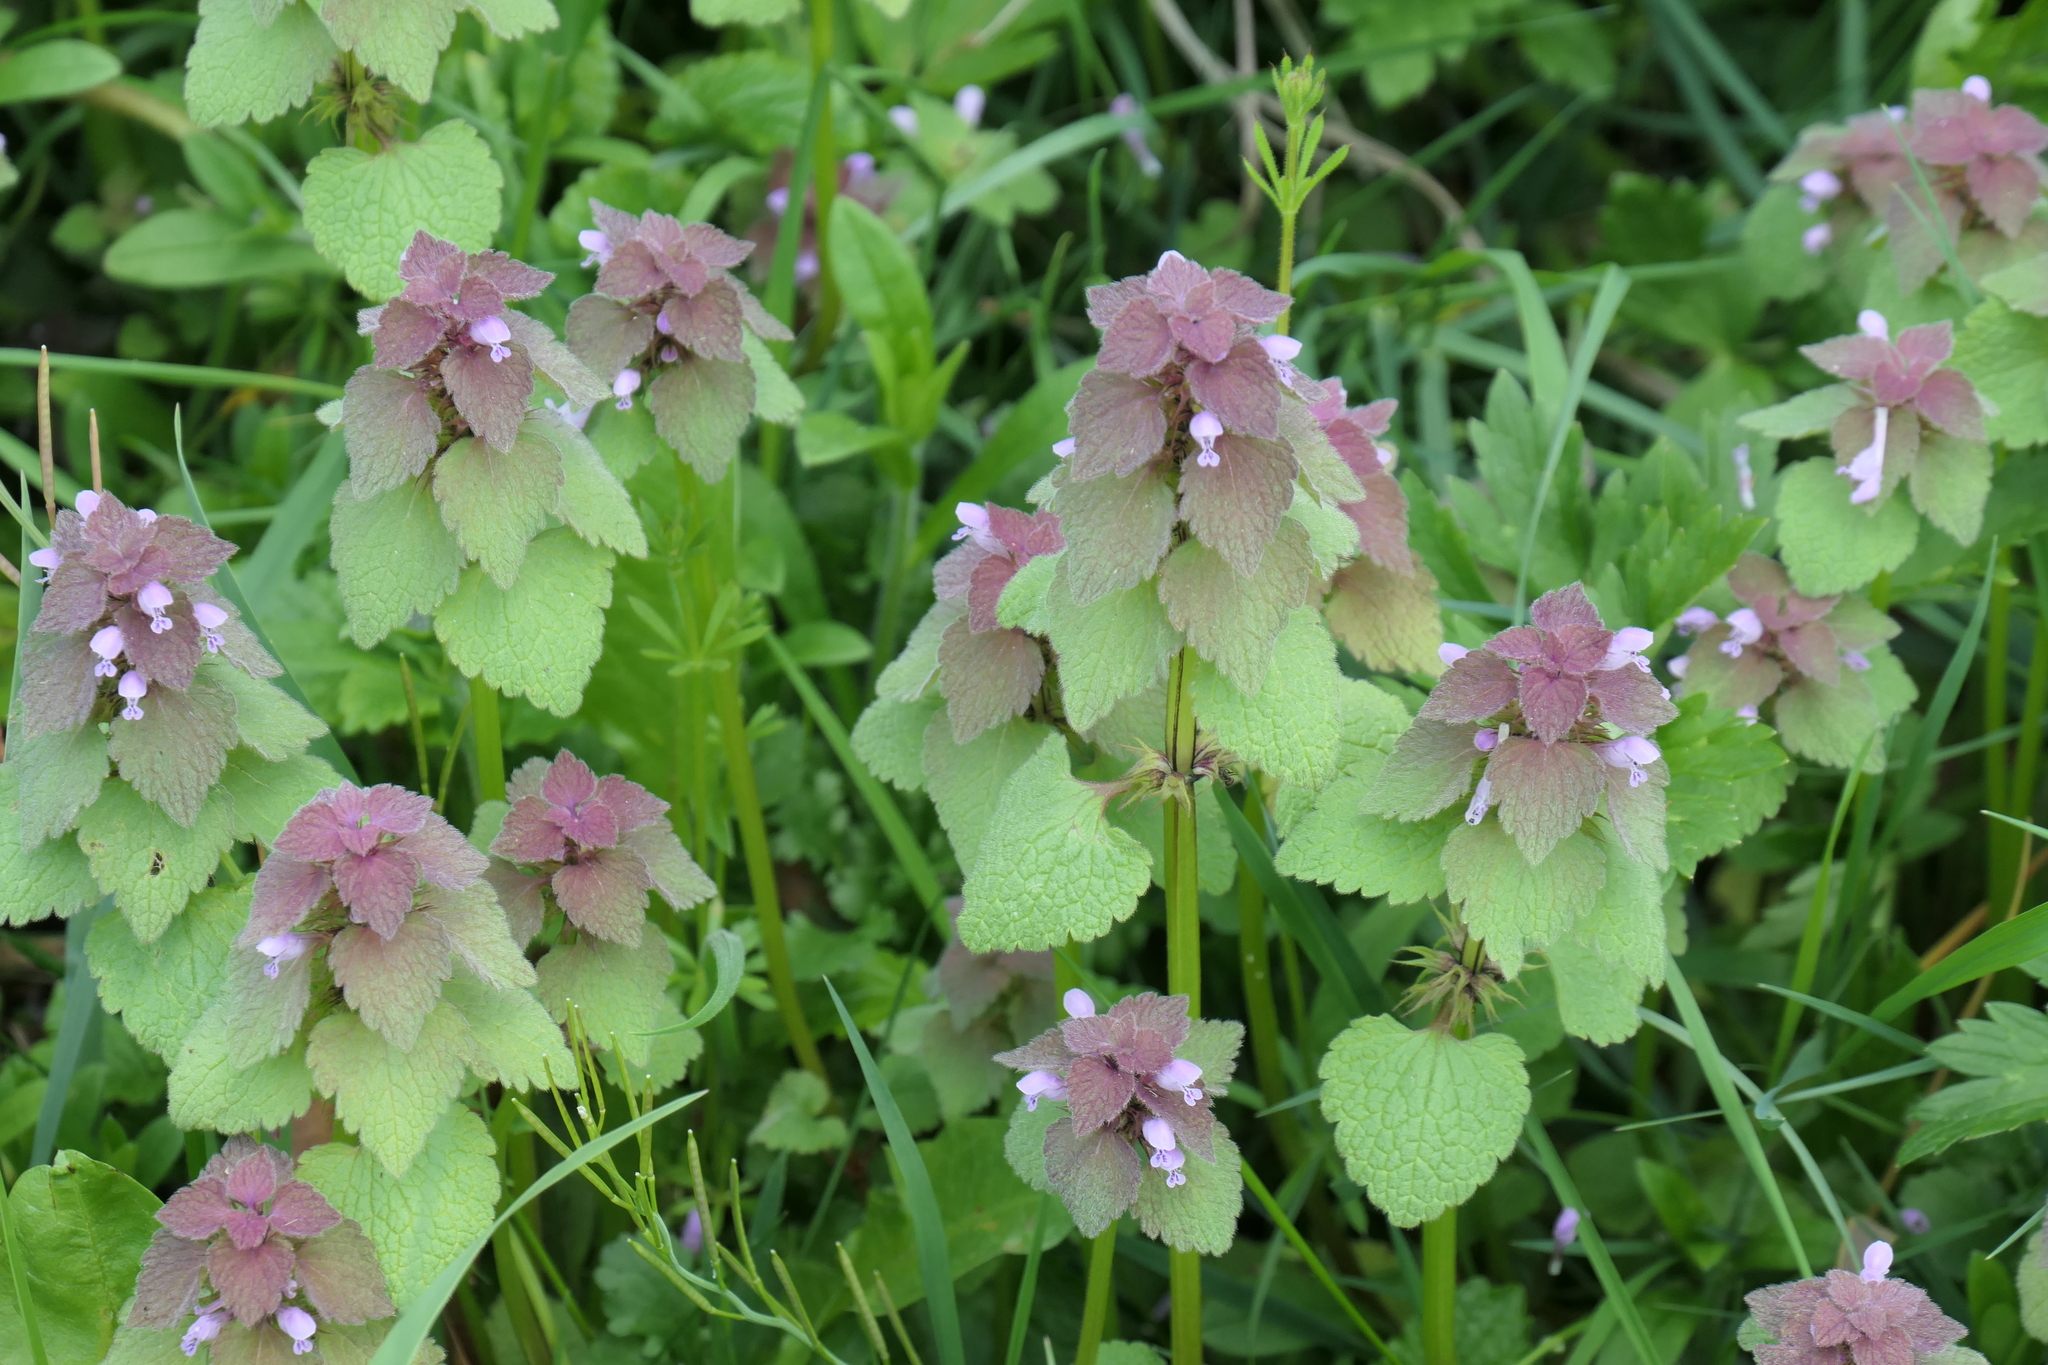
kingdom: Plantae
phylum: Tracheophyta
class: Magnoliopsida
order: Lamiales
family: Lamiaceae
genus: Lamium
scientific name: Lamium purpureum
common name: Red dead-nettle
